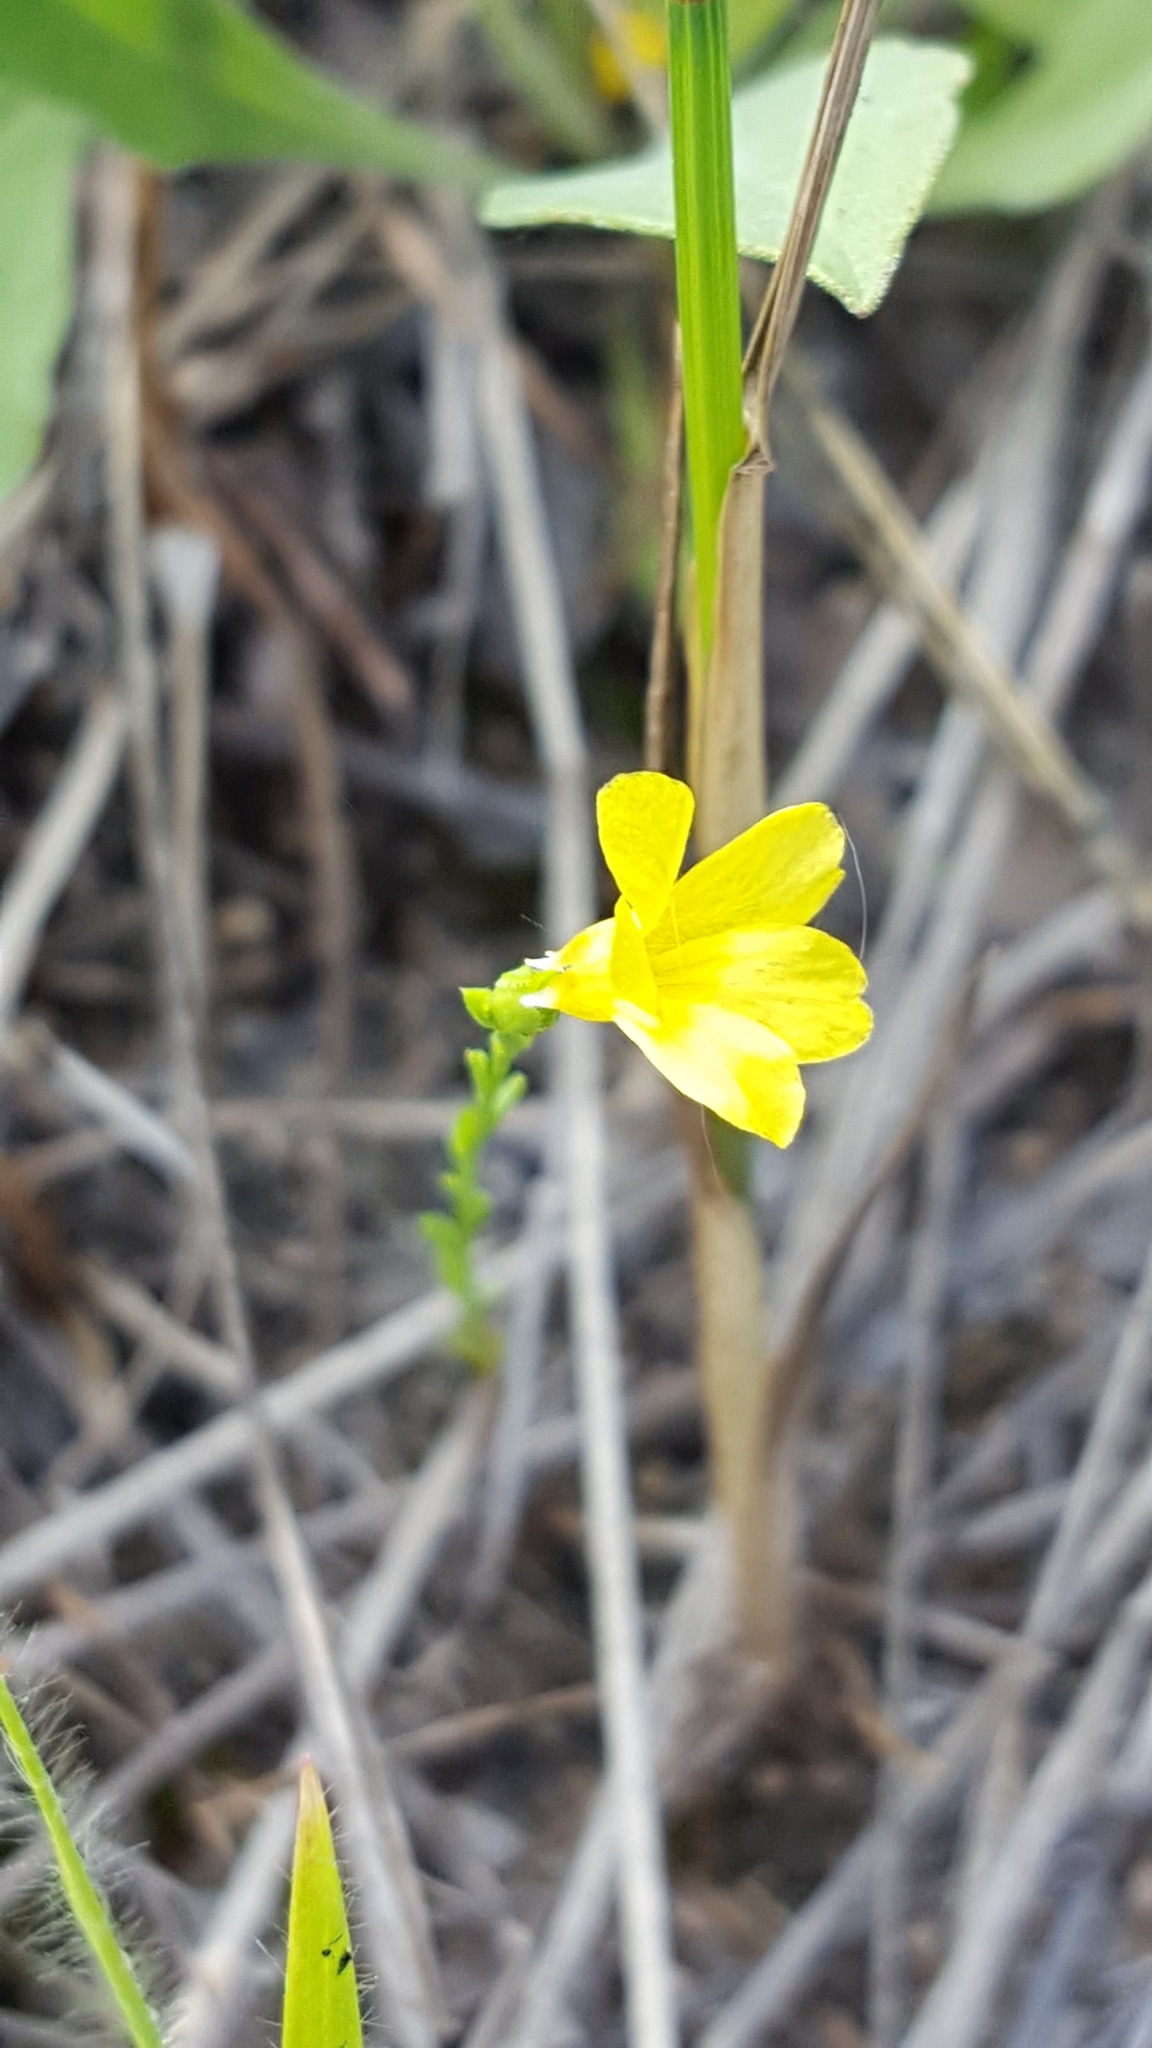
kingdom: Plantae
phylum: Tracheophyta
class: Magnoliopsida
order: Malpighiales
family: Linaceae
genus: Linum
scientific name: Linum sulcatum
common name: Grooved flax
